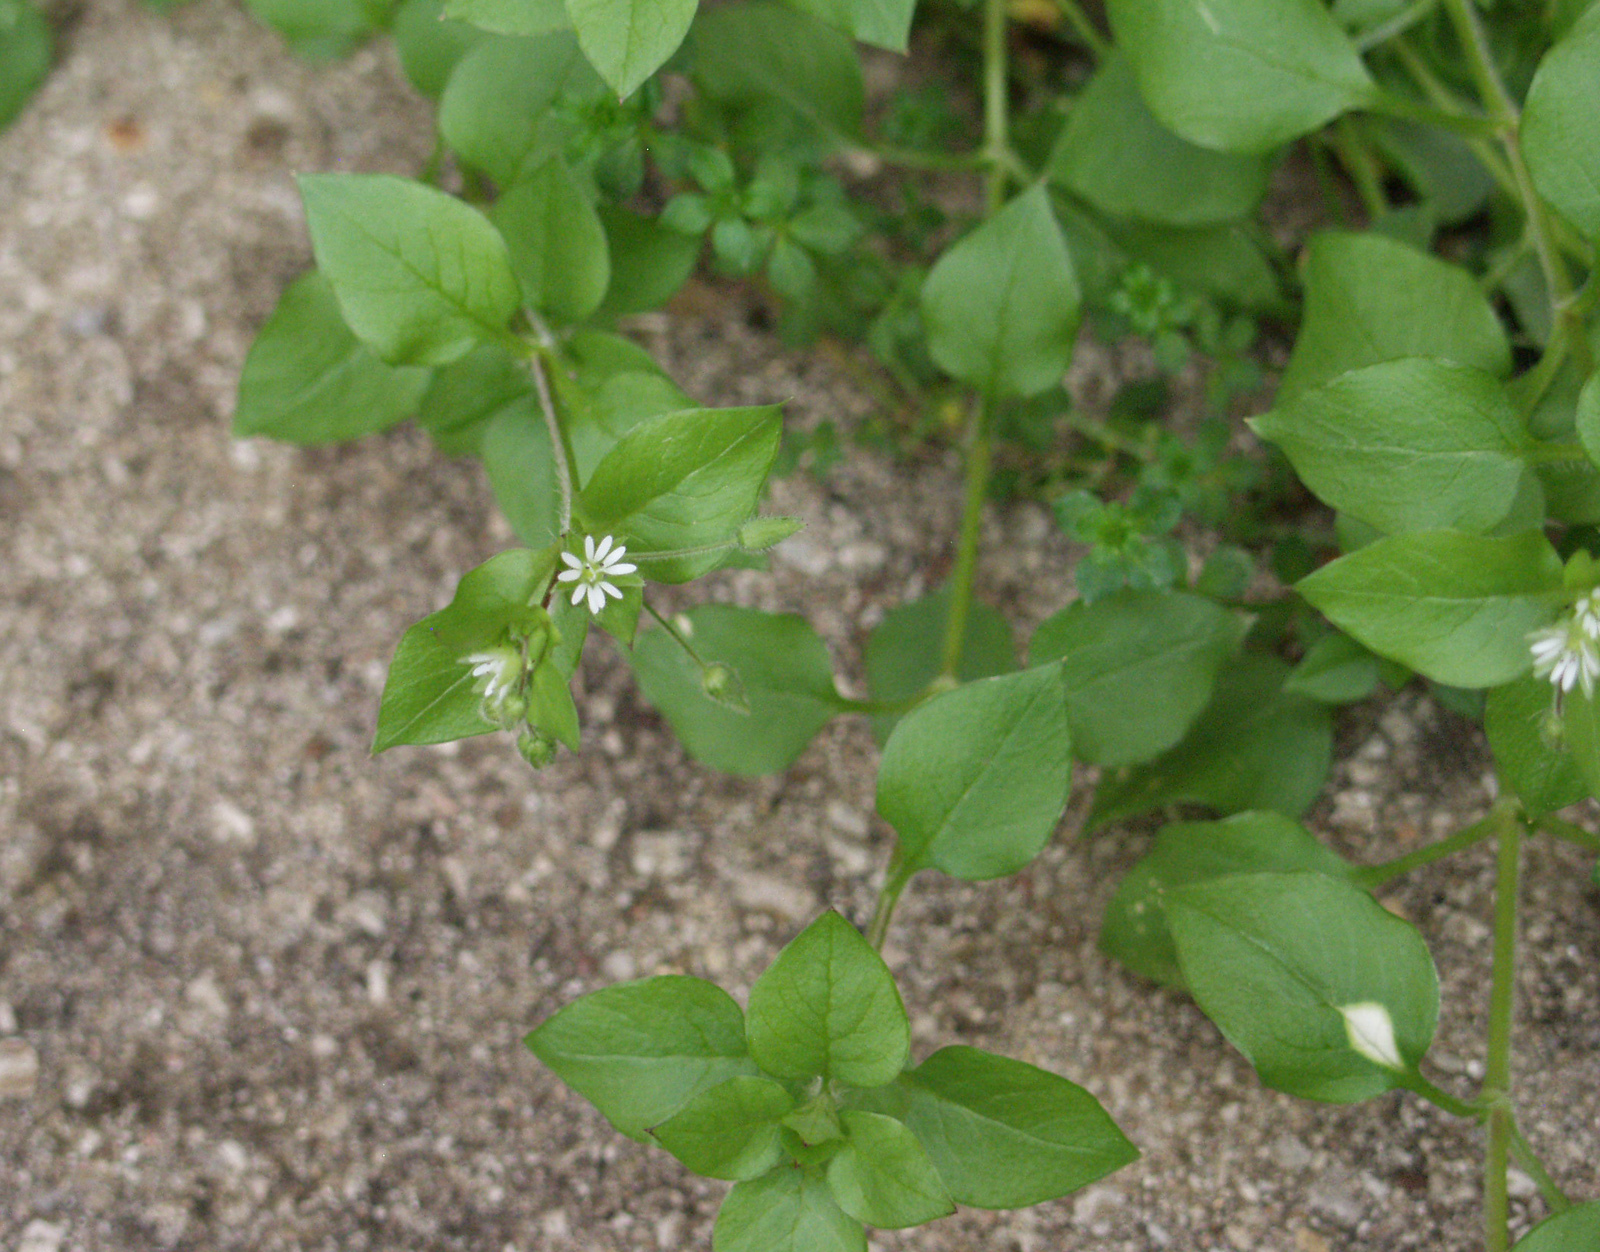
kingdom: Plantae
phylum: Tracheophyta
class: Magnoliopsida
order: Caryophyllales
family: Caryophyllaceae
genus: Stellaria
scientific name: Stellaria media
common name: Common chickweed
